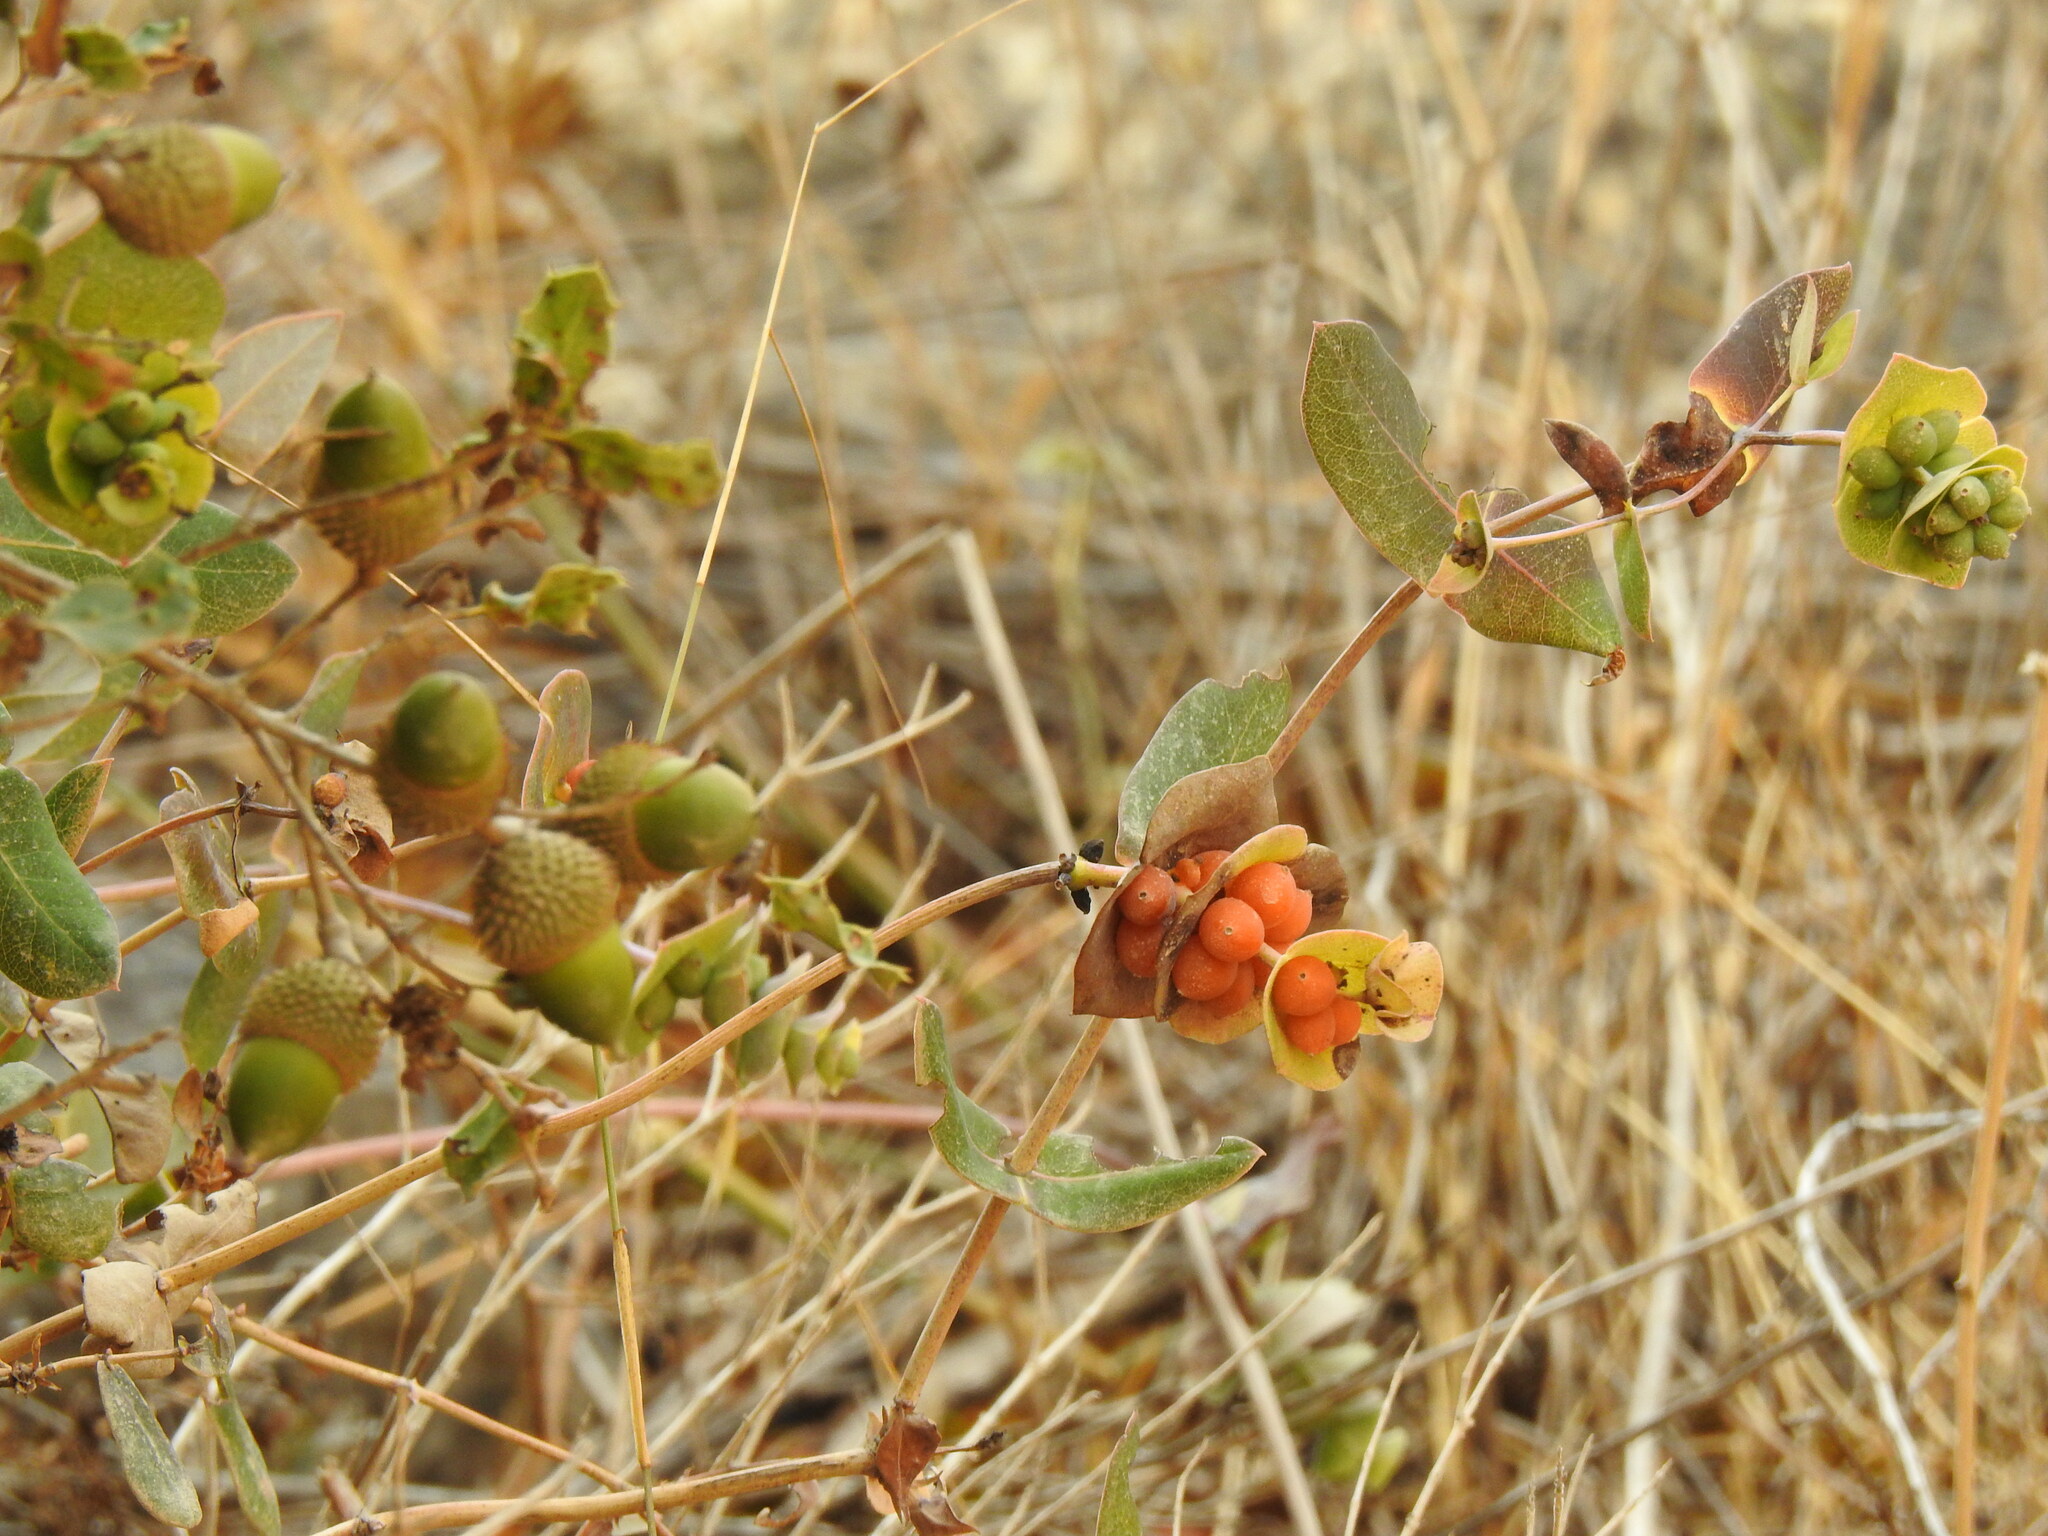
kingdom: Plantae
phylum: Tracheophyta
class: Magnoliopsida
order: Dipsacales
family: Caprifoliaceae
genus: Lonicera
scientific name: Lonicera implexa
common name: Minorca honeysuckle
